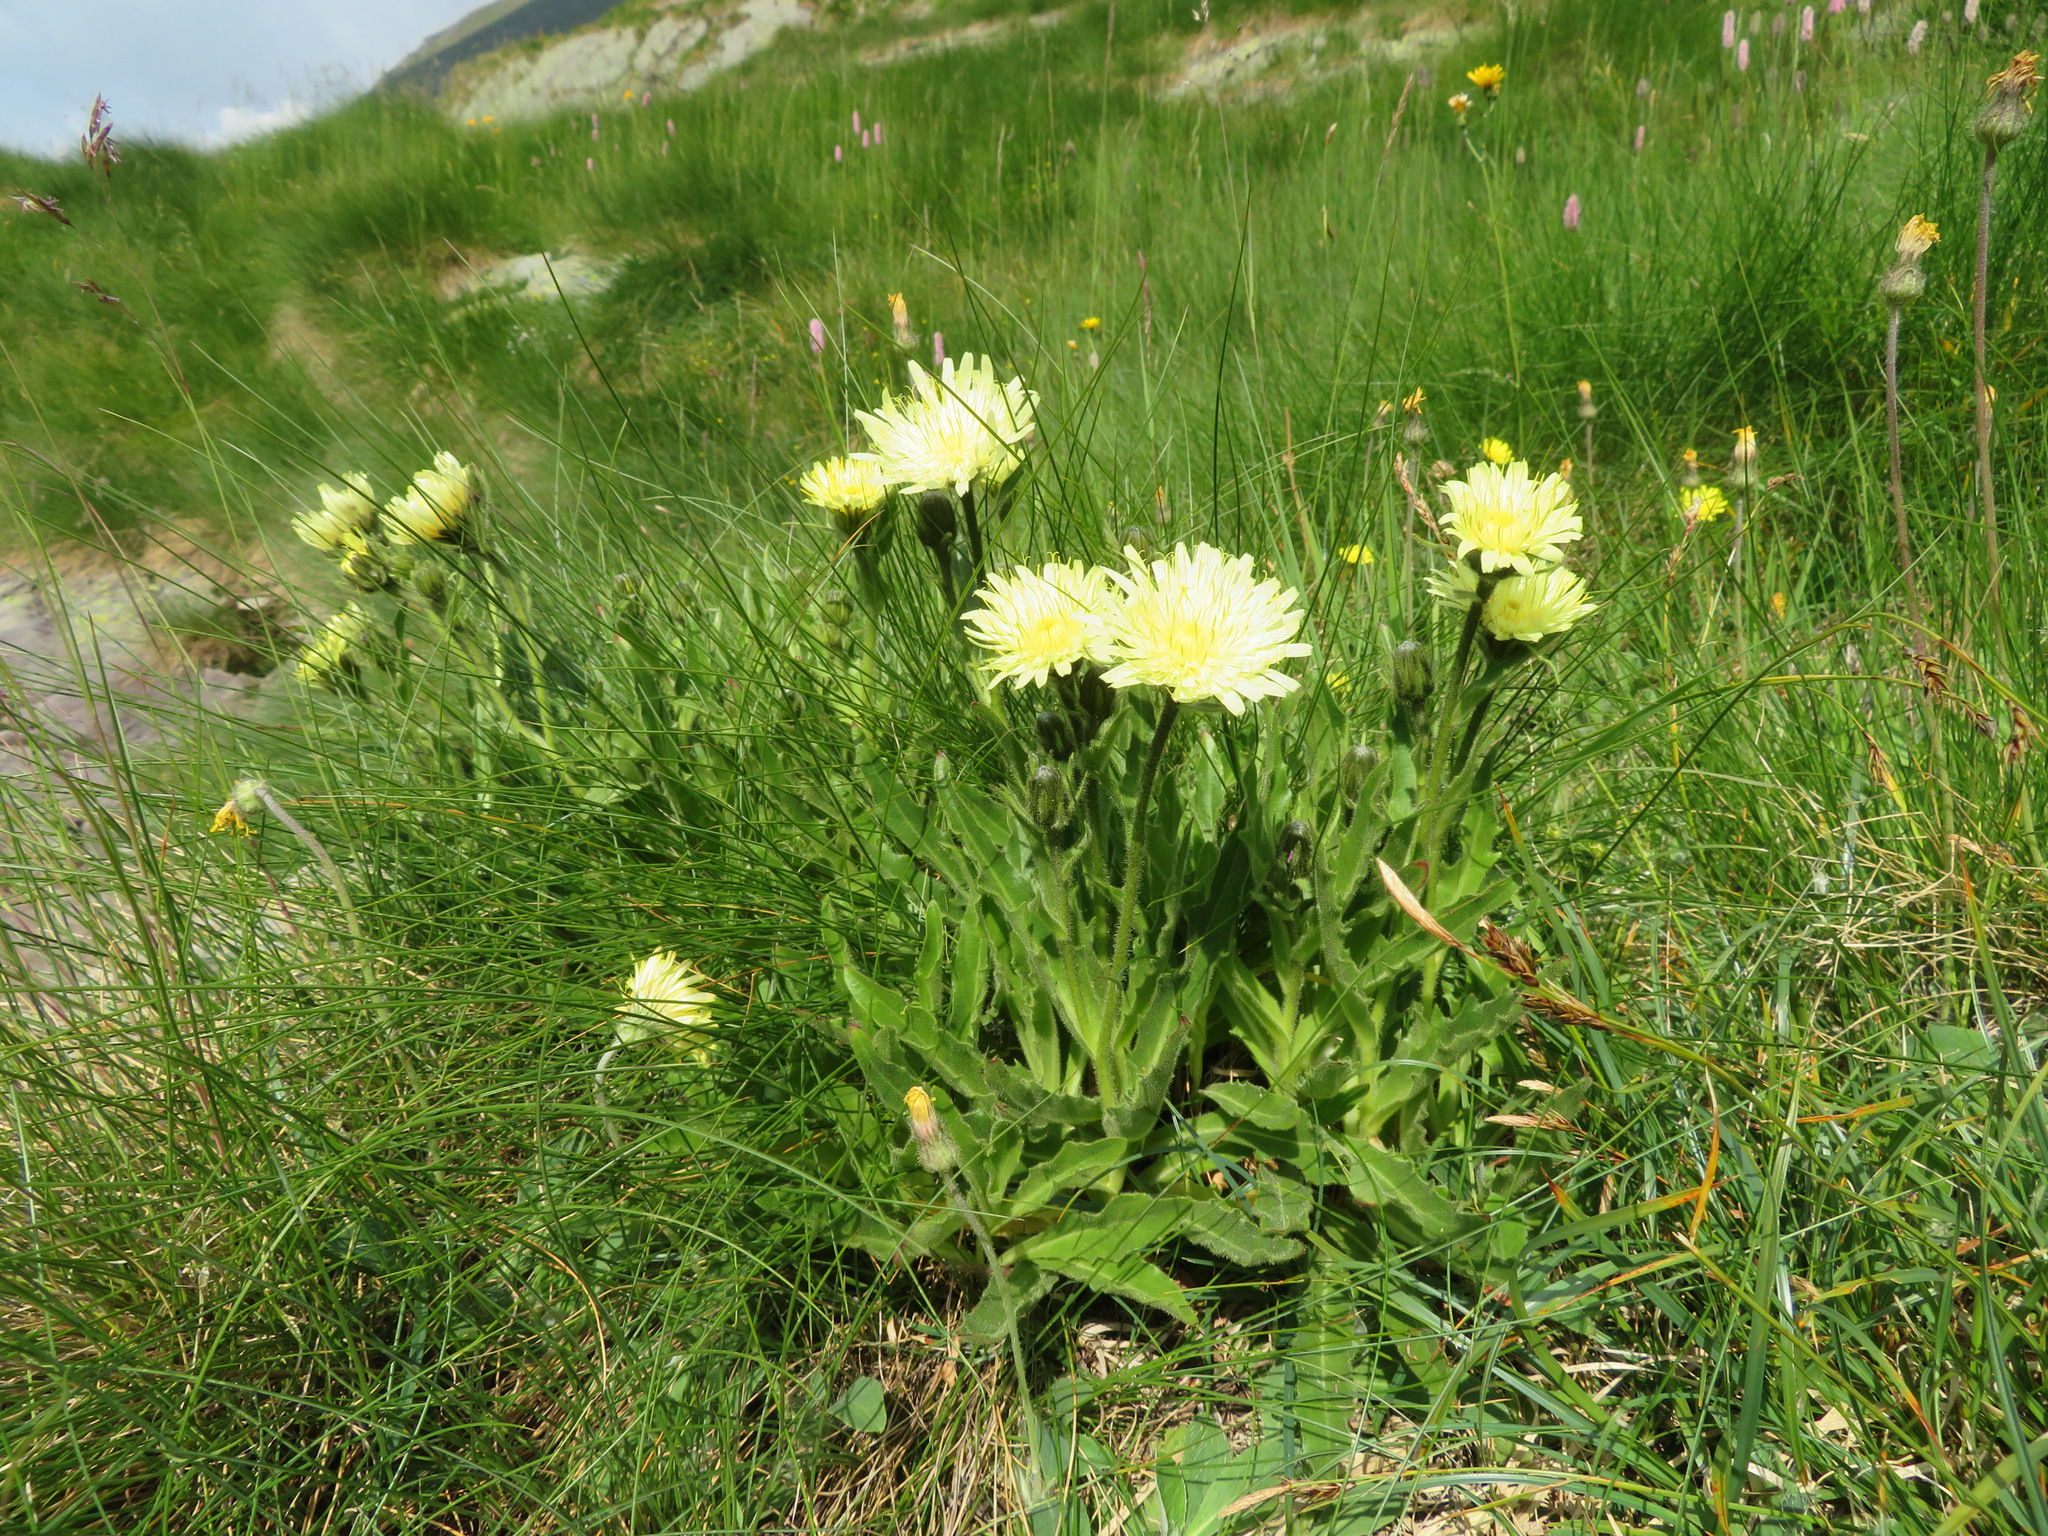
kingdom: Plantae
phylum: Tracheophyta
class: Magnoliopsida
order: Asterales
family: Asteraceae
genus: Schlagintweitia
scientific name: Schlagintweitia intybacea
